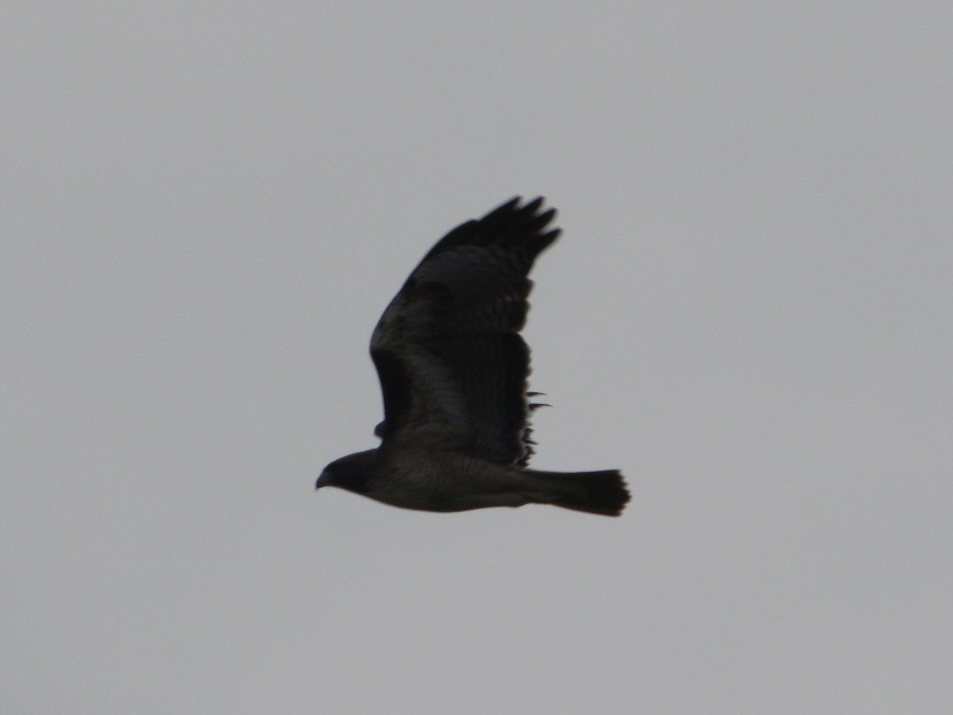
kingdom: Animalia
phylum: Chordata
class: Aves
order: Accipitriformes
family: Accipitridae
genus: Buteo
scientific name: Buteo jamaicensis
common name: Red-tailed hawk
